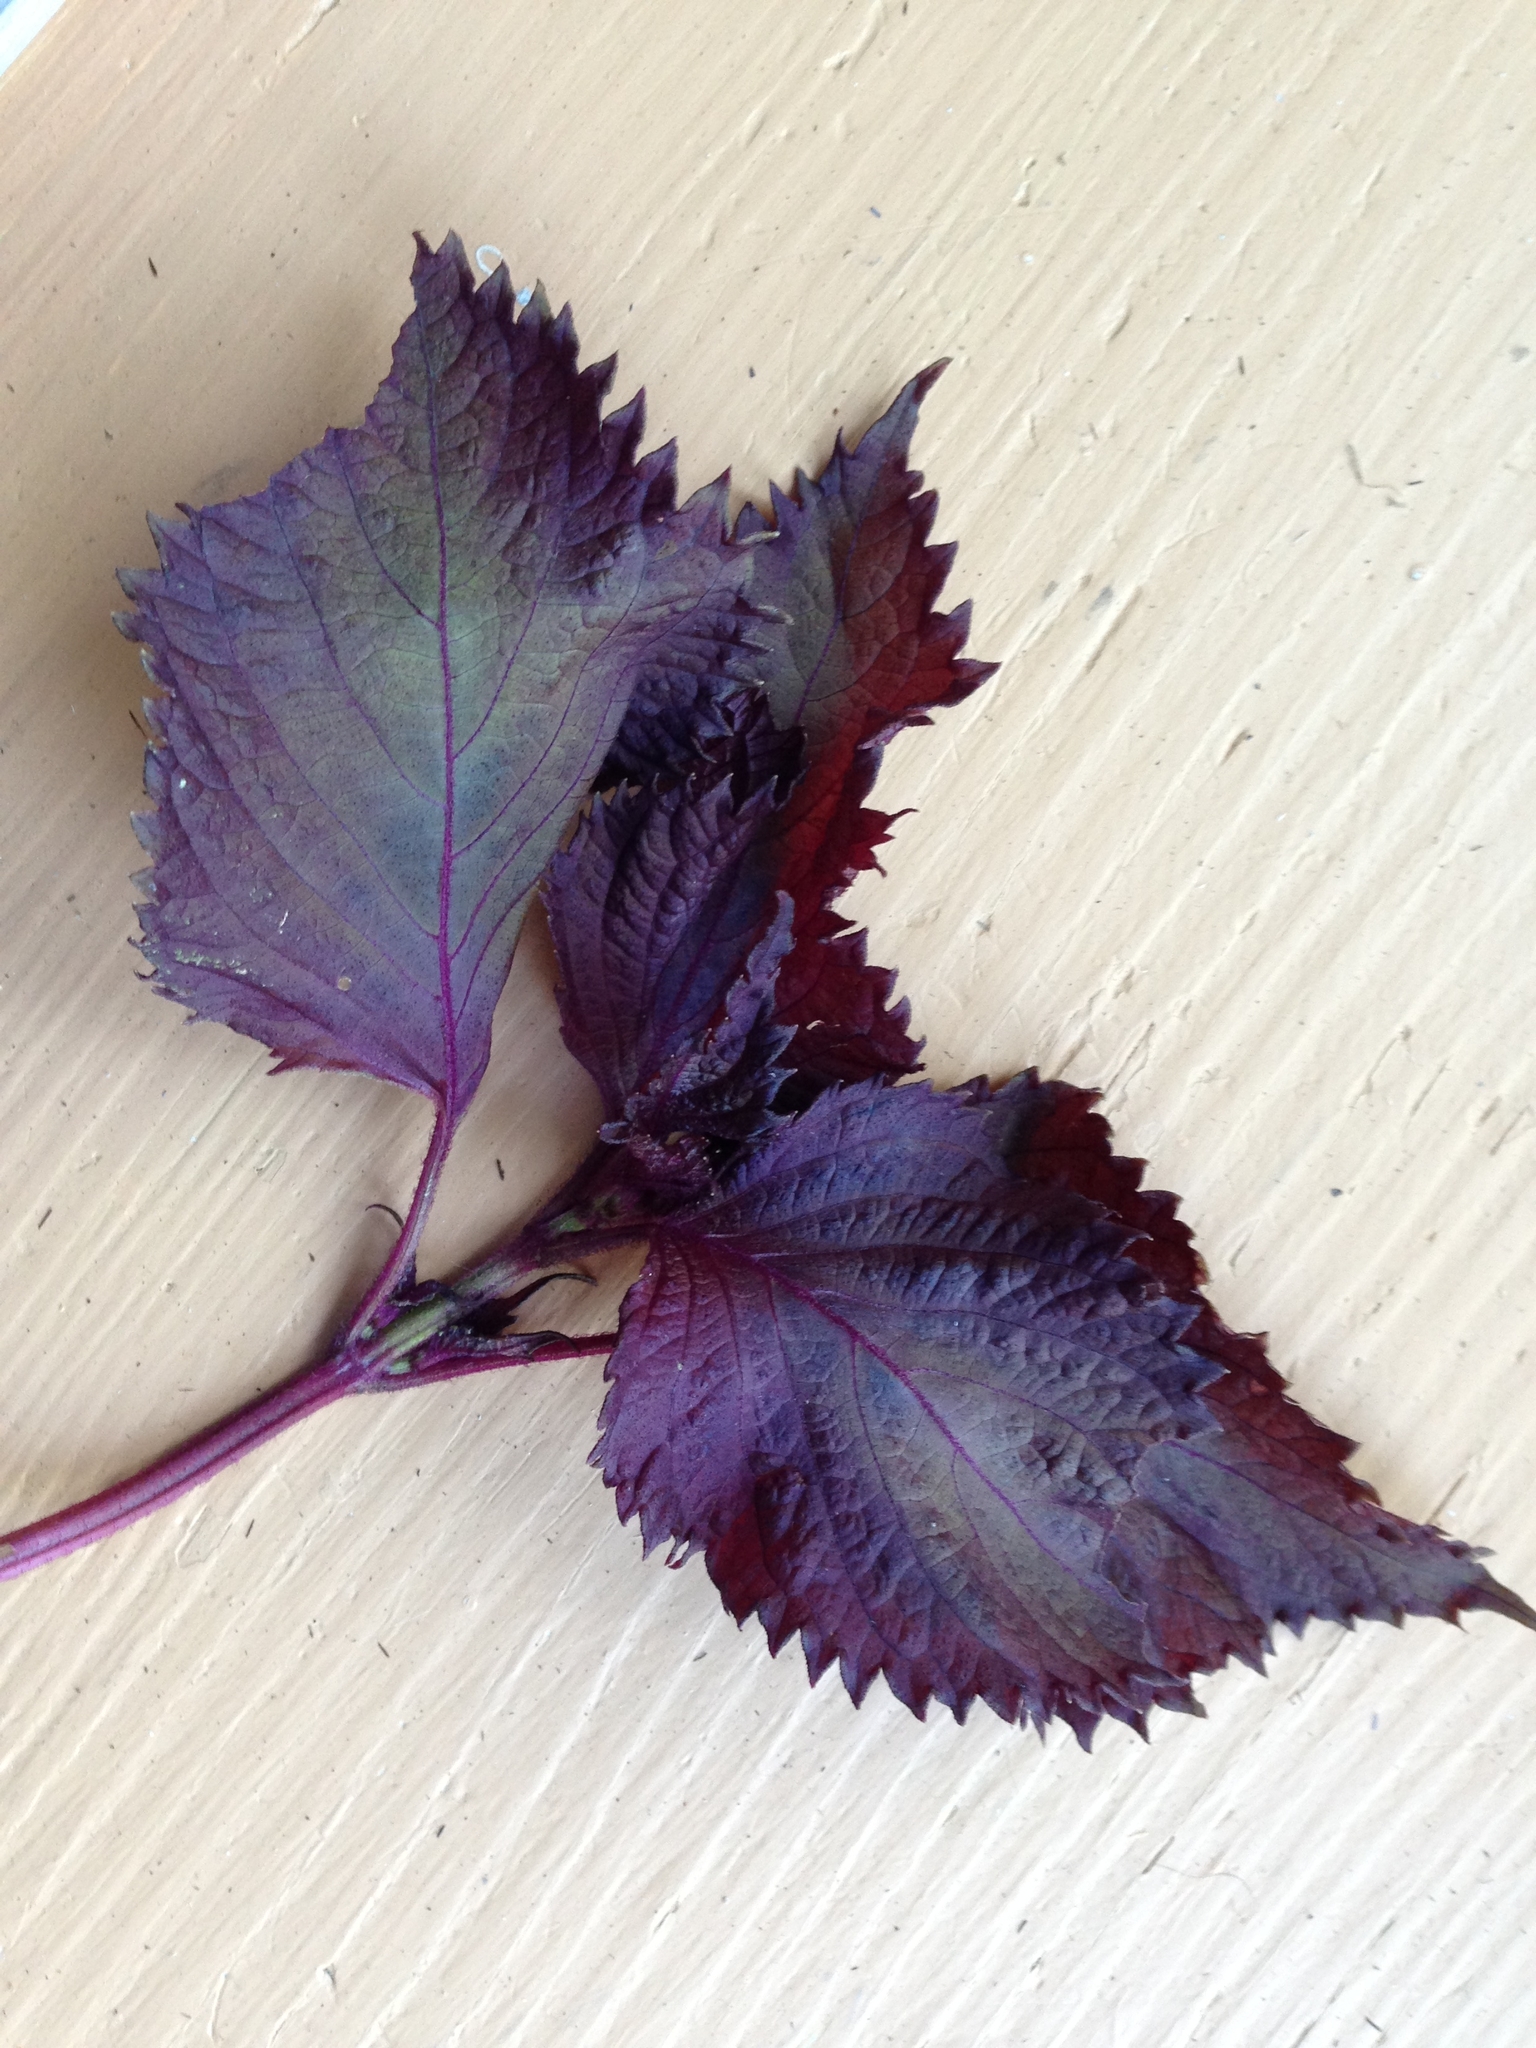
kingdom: Plantae
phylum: Tracheophyta
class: Magnoliopsida
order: Lamiales
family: Lamiaceae
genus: Perilla
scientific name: Perilla frutescens
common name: Perilla
